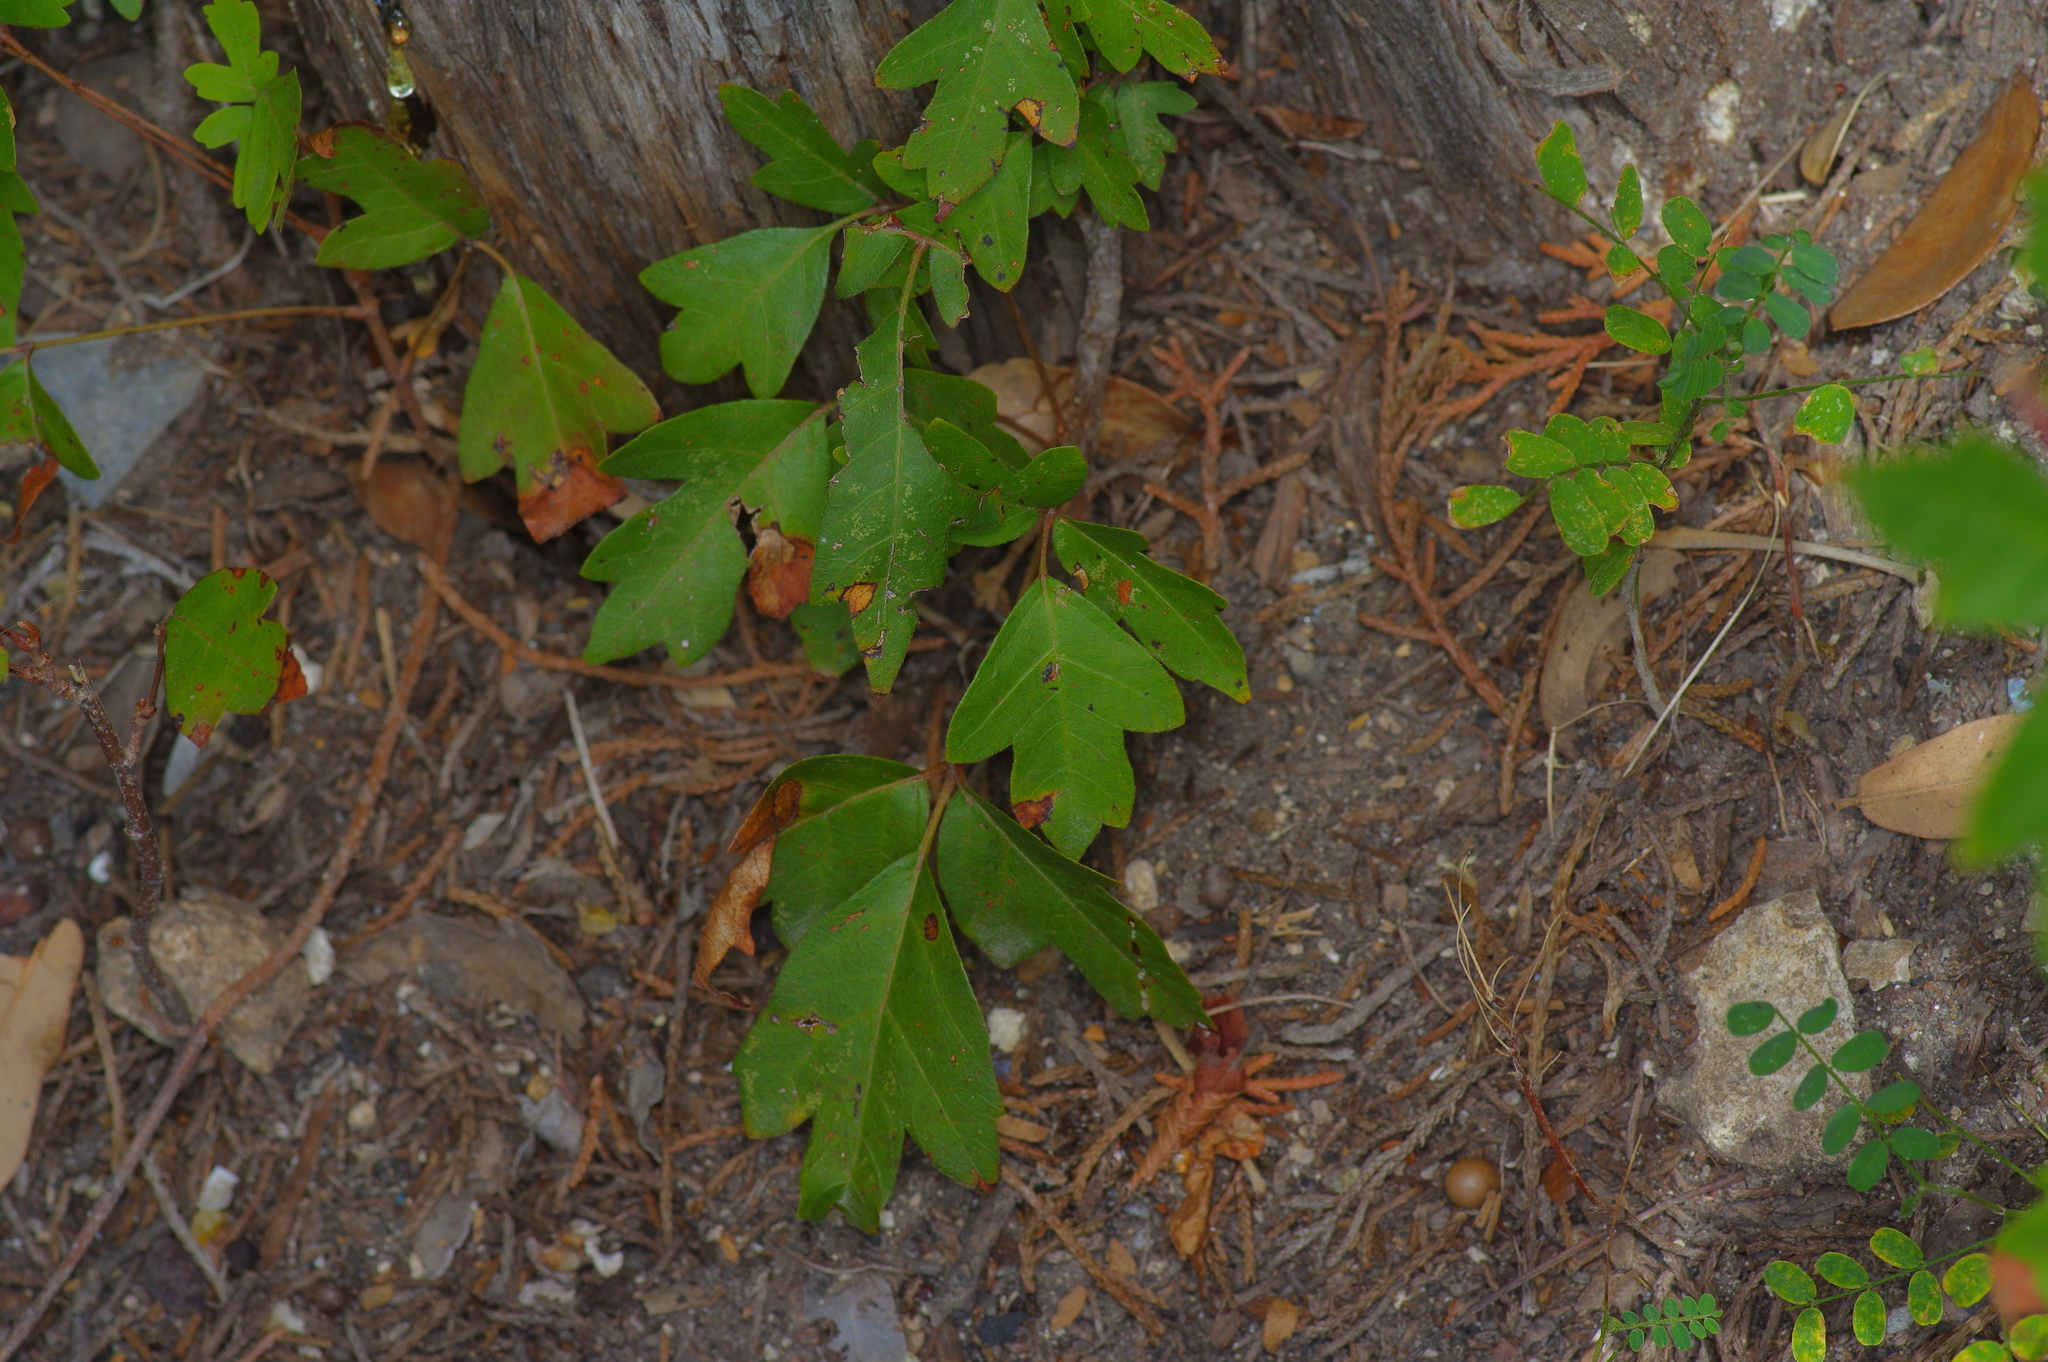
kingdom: Plantae
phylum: Tracheophyta
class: Magnoliopsida
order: Sapindales
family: Anacardiaceae
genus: Toxicodendron
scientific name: Toxicodendron radicans
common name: Poison ivy
